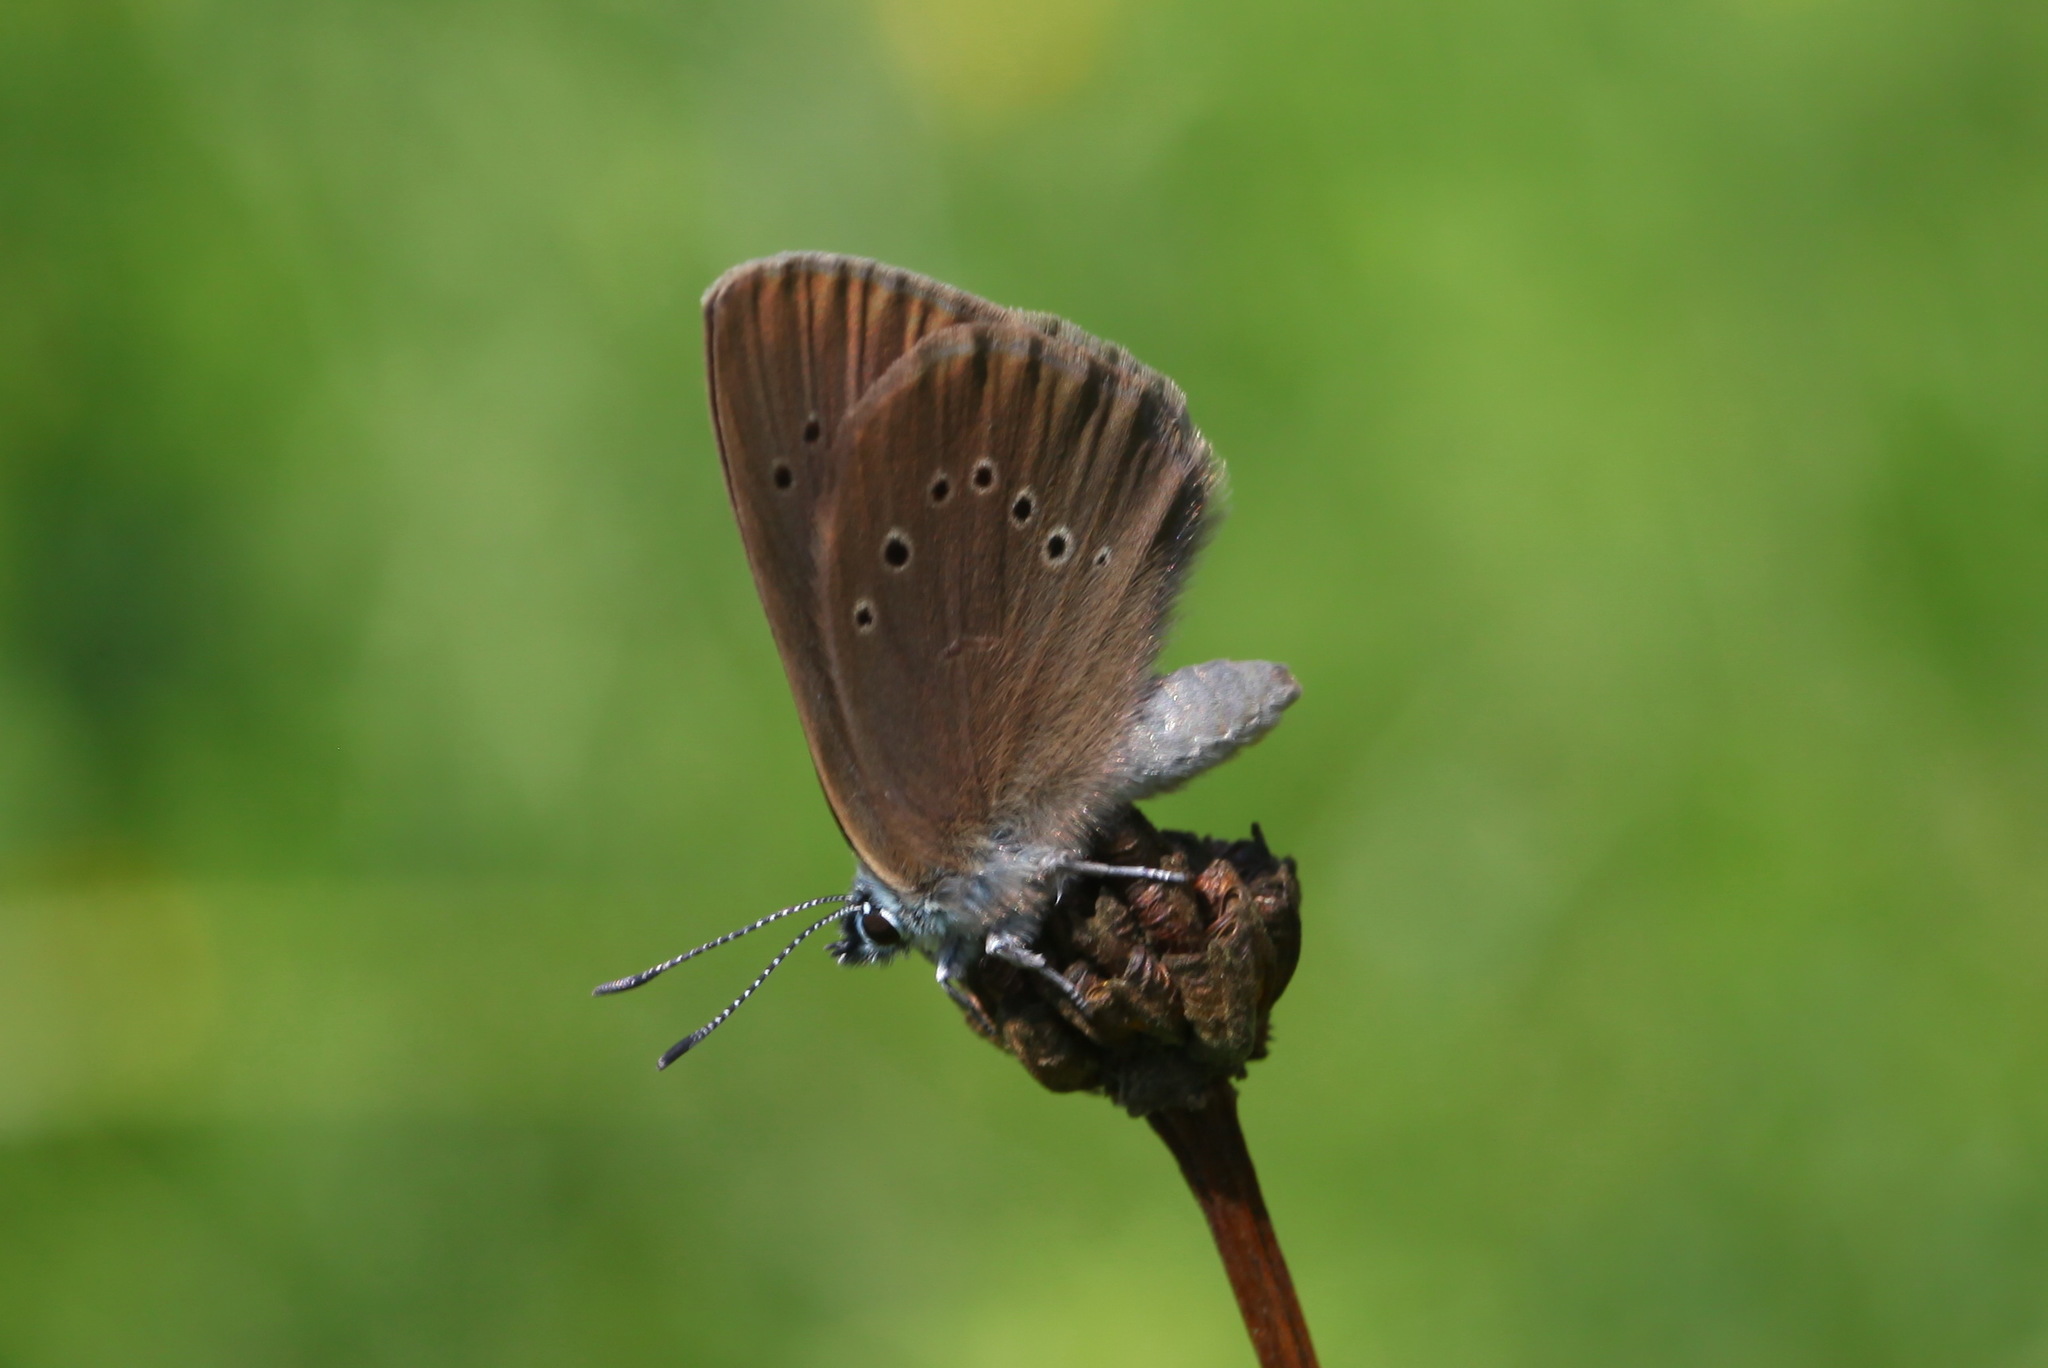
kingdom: Animalia
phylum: Arthropoda
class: Insecta
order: Lepidoptera
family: Lycaenidae
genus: Maculinea
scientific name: Maculinea nausithous
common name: Dusky large blue
